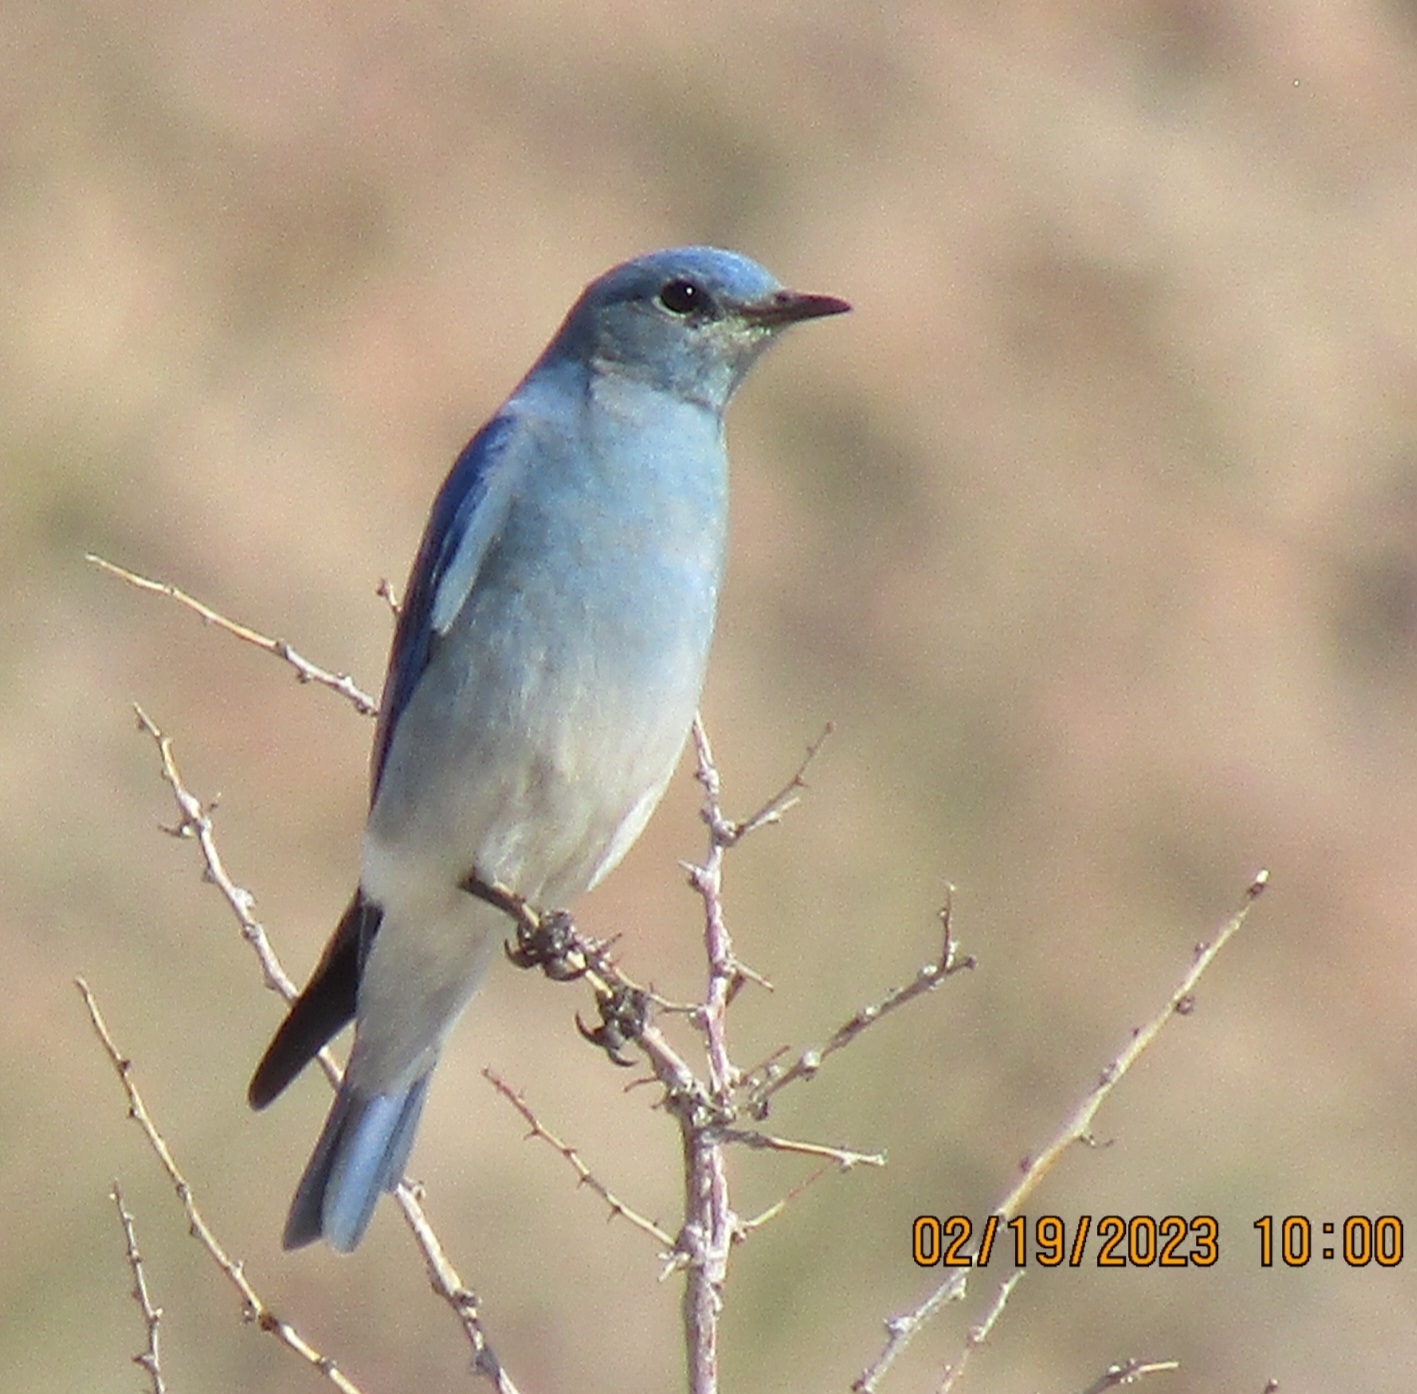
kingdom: Animalia
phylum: Chordata
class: Aves
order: Passeriformes
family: Turdidae
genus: Sialia
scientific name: Sialia currucoides
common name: Mountain bluebird
